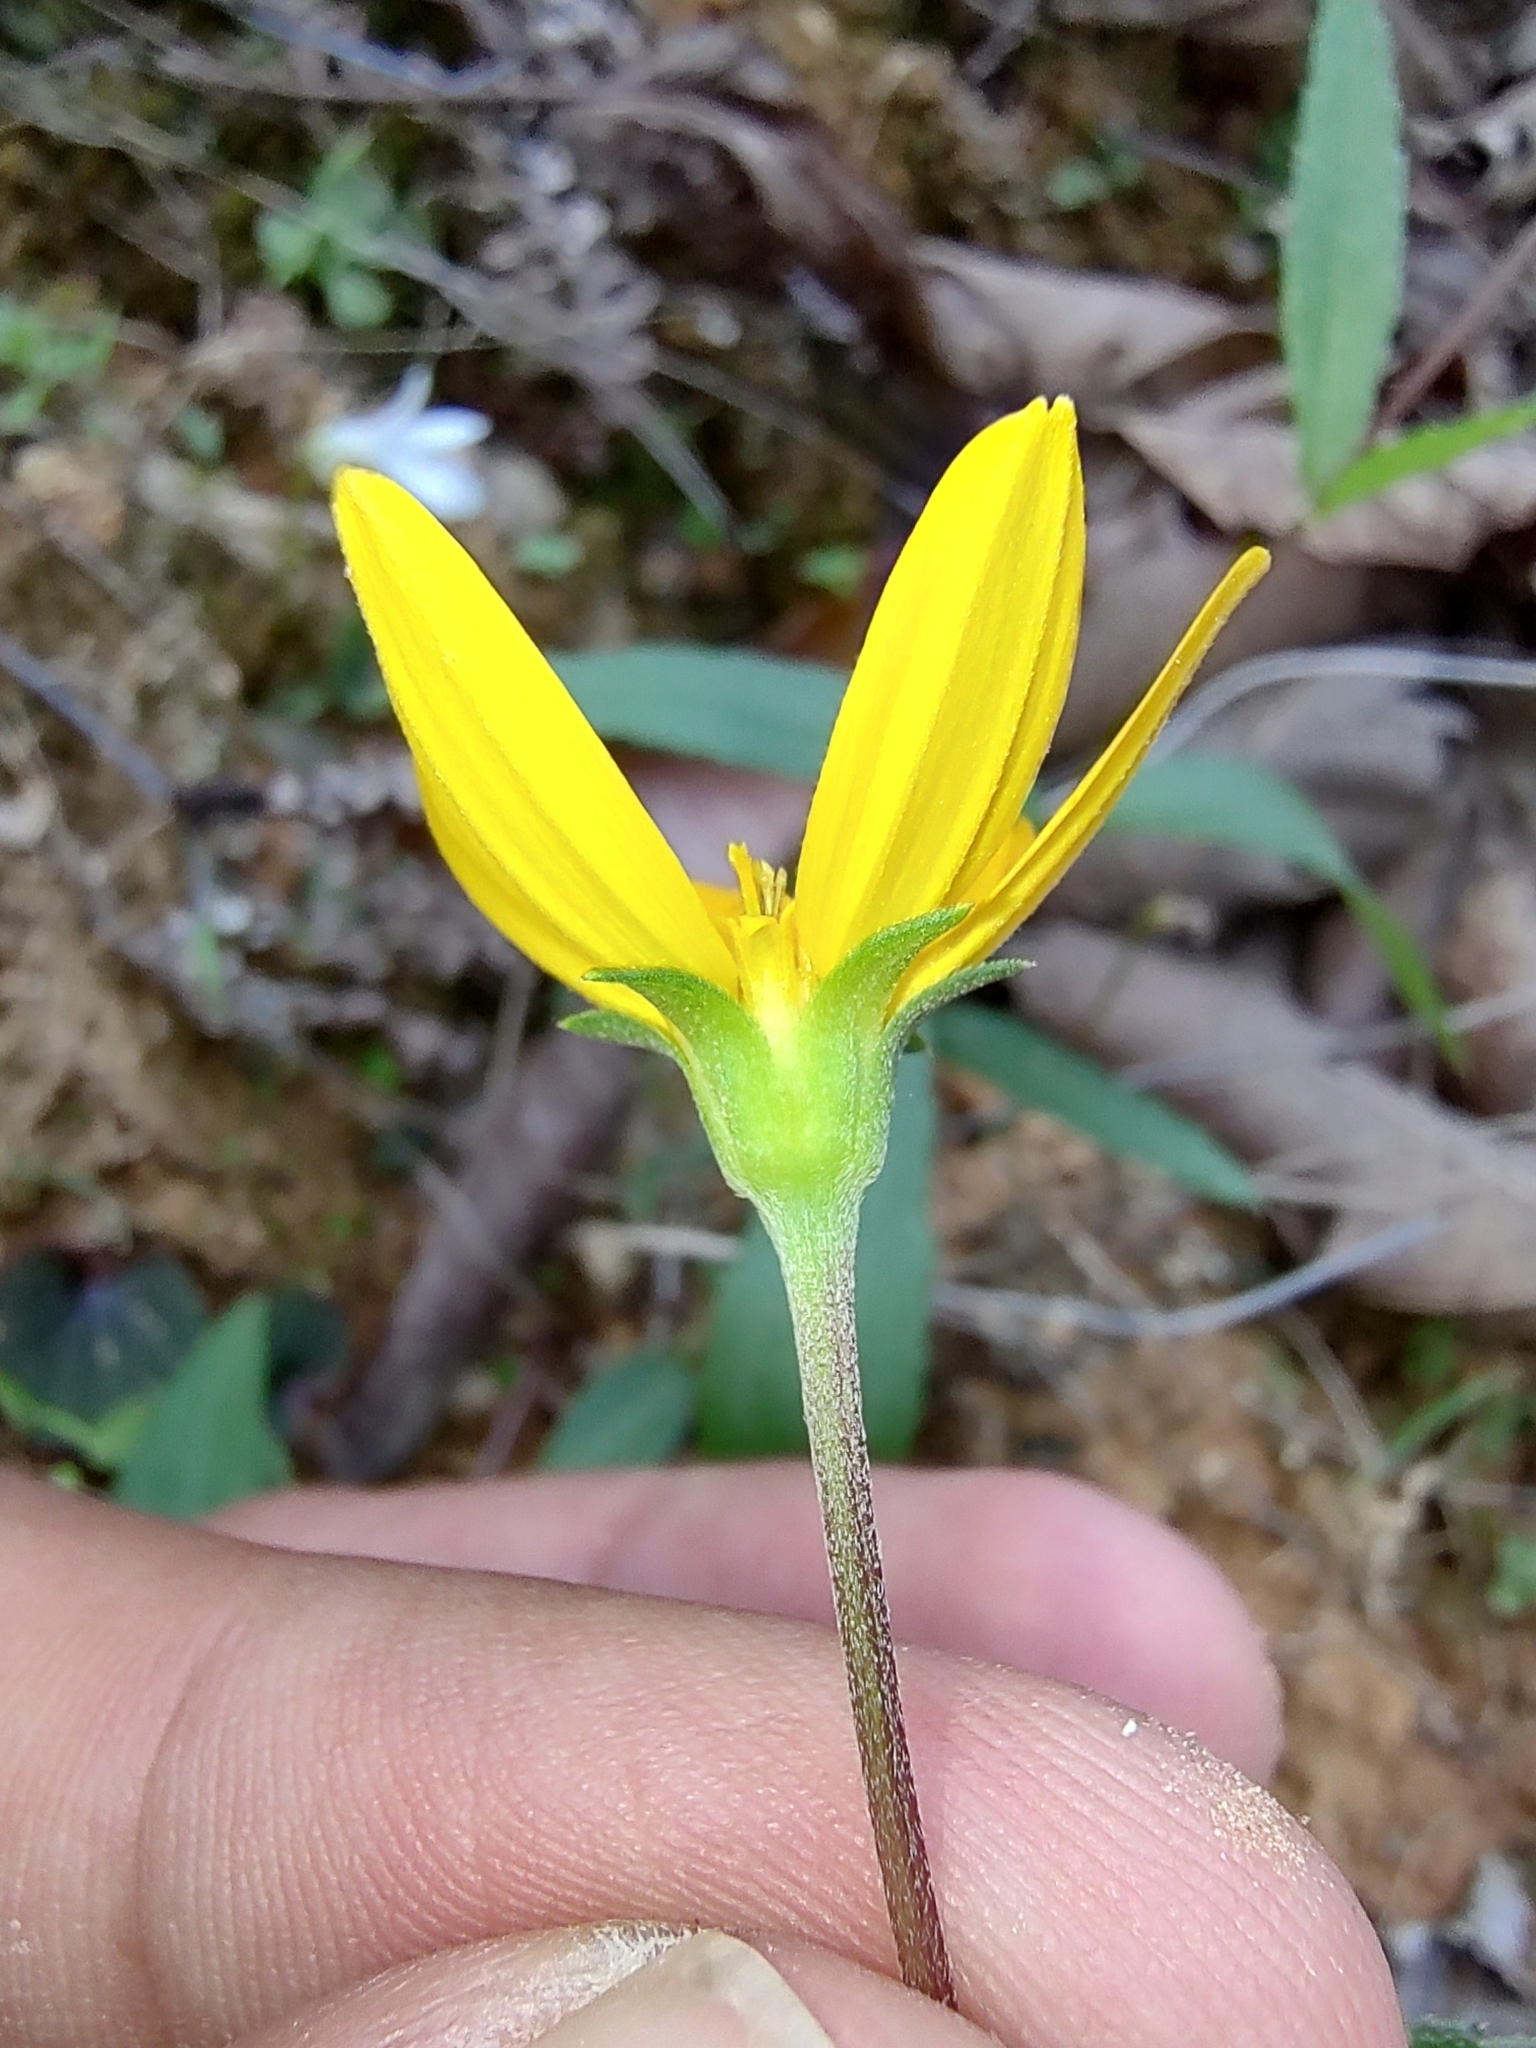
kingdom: Plantae
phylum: Tracheophyta
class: Magnoliopsida
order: Asterales
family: Asteraceae
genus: Perymenium
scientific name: Perymenium buphthalmoides
